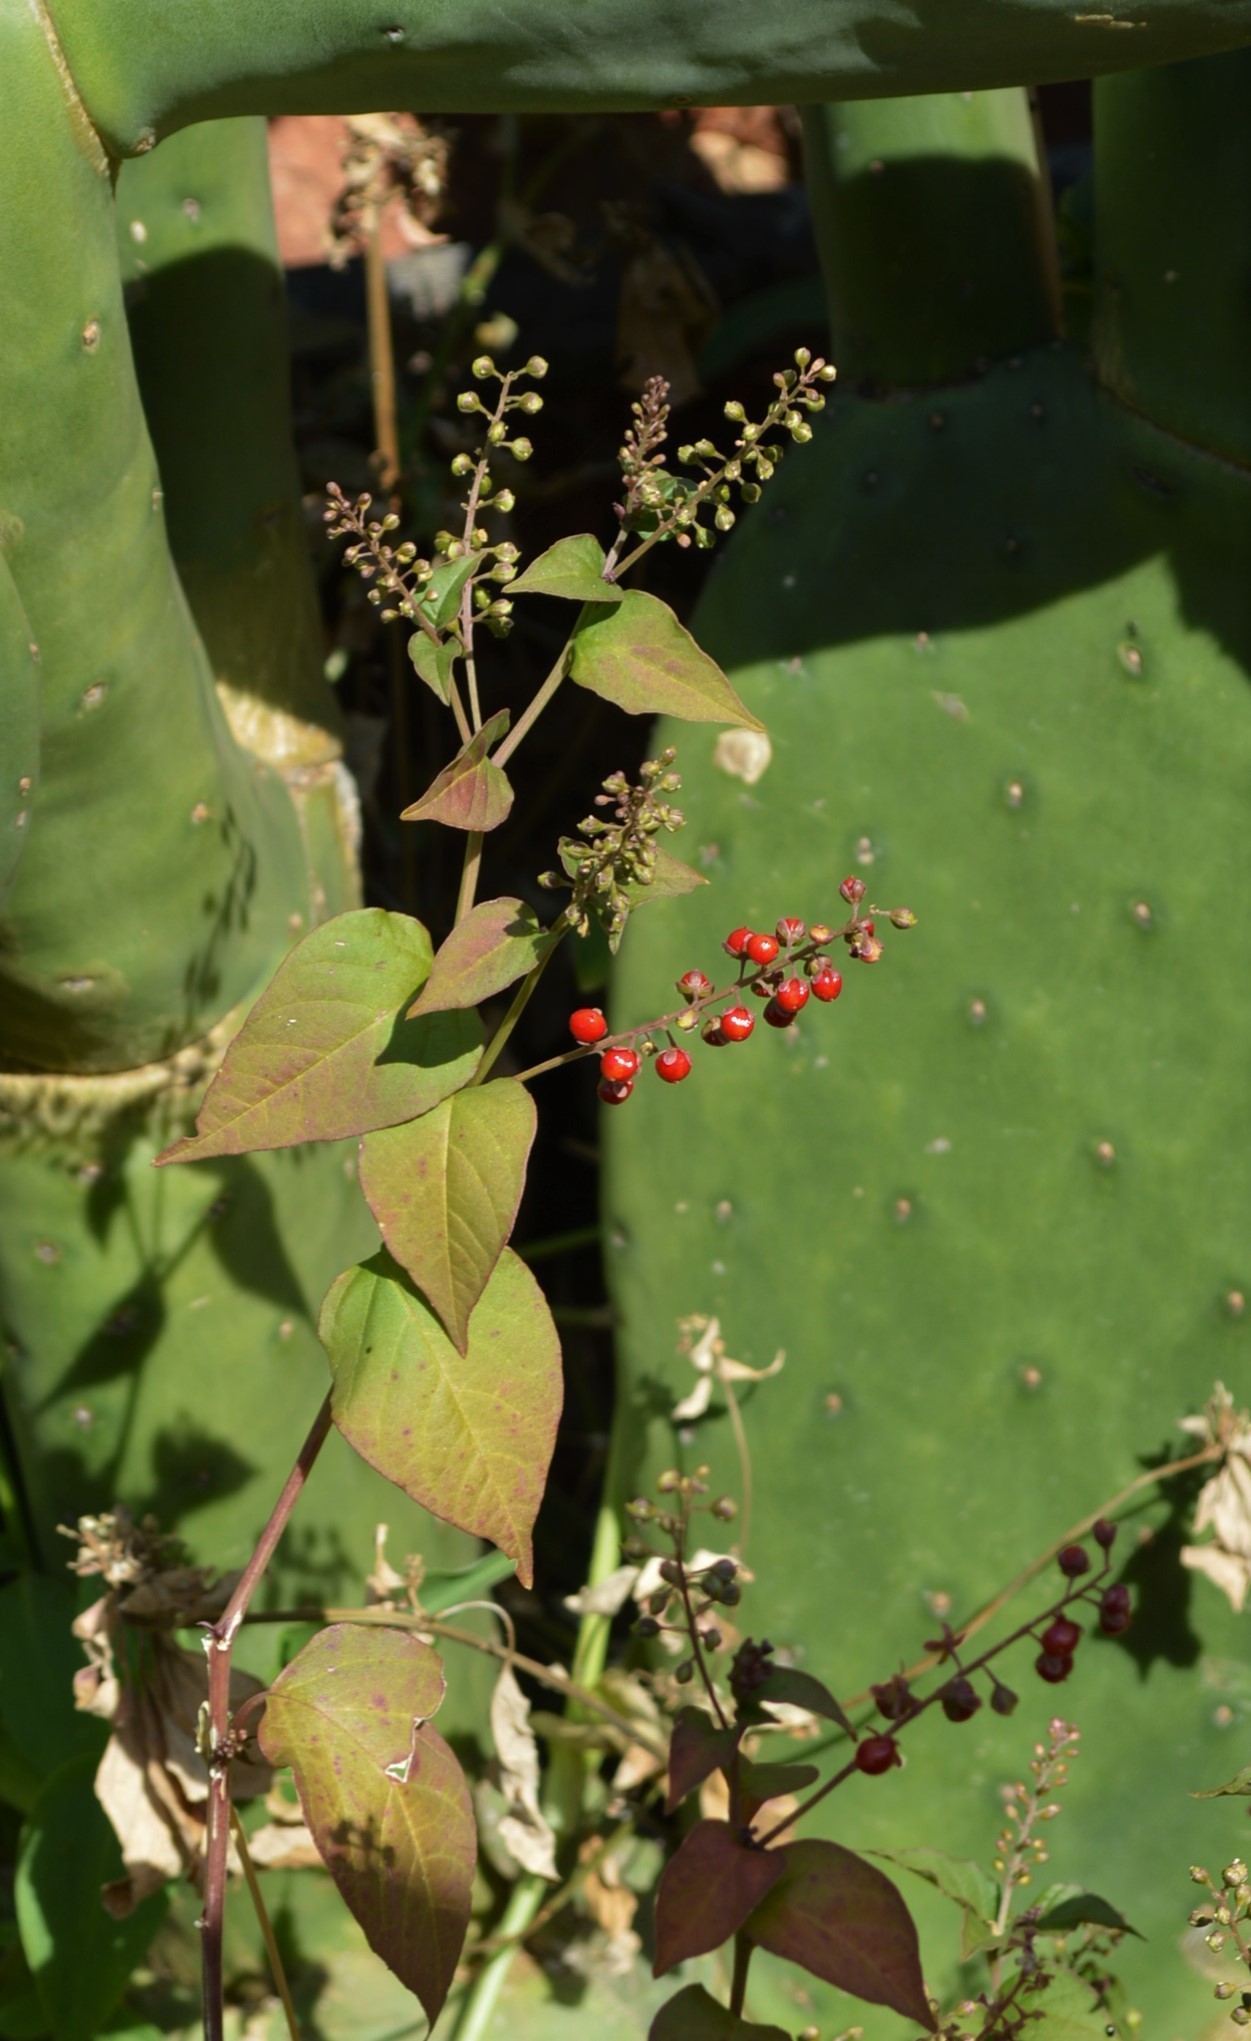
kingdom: Plantae
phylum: Tracheophyta
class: Magnoliopsida
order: Caryophyllales
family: Phytolaccaceae
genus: Rivina
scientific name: Rivina humilis
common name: Rougeplant
